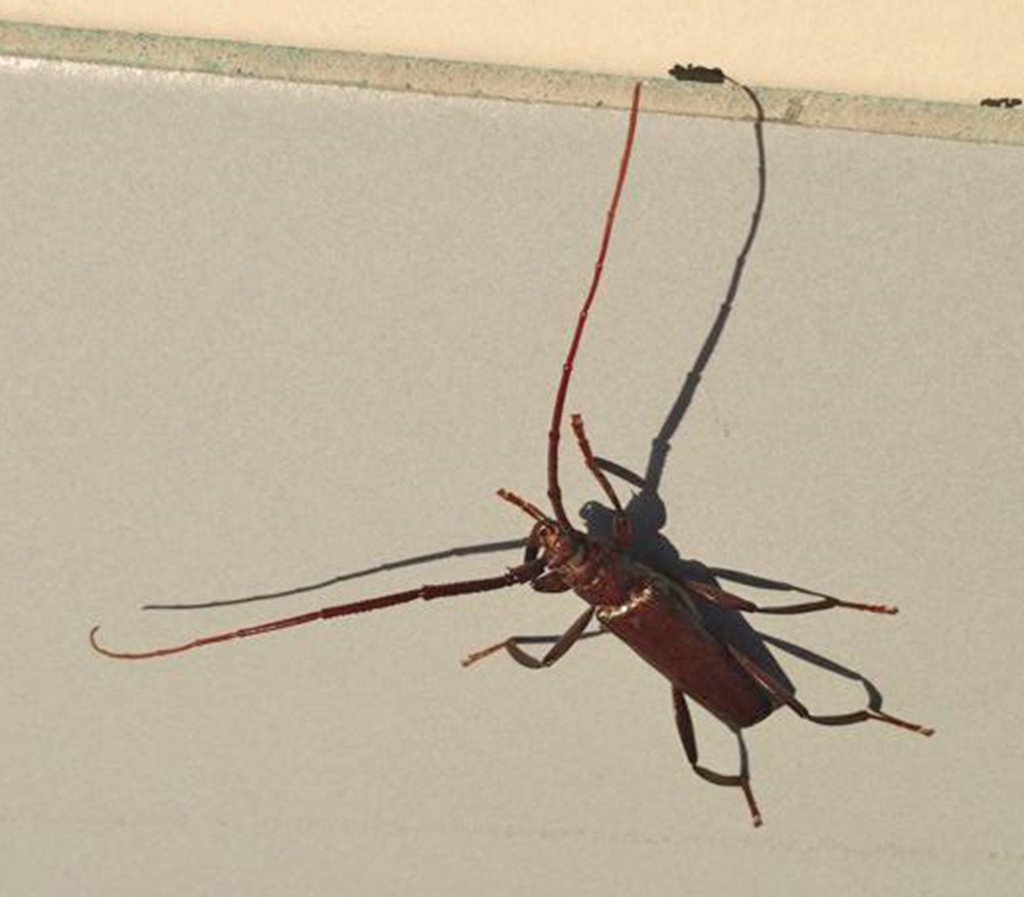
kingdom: Animalia
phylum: Arthropoda
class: Insecta
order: Coleoptera
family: Cerambycidae
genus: Xystrocera
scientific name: Xystrocera virescens
